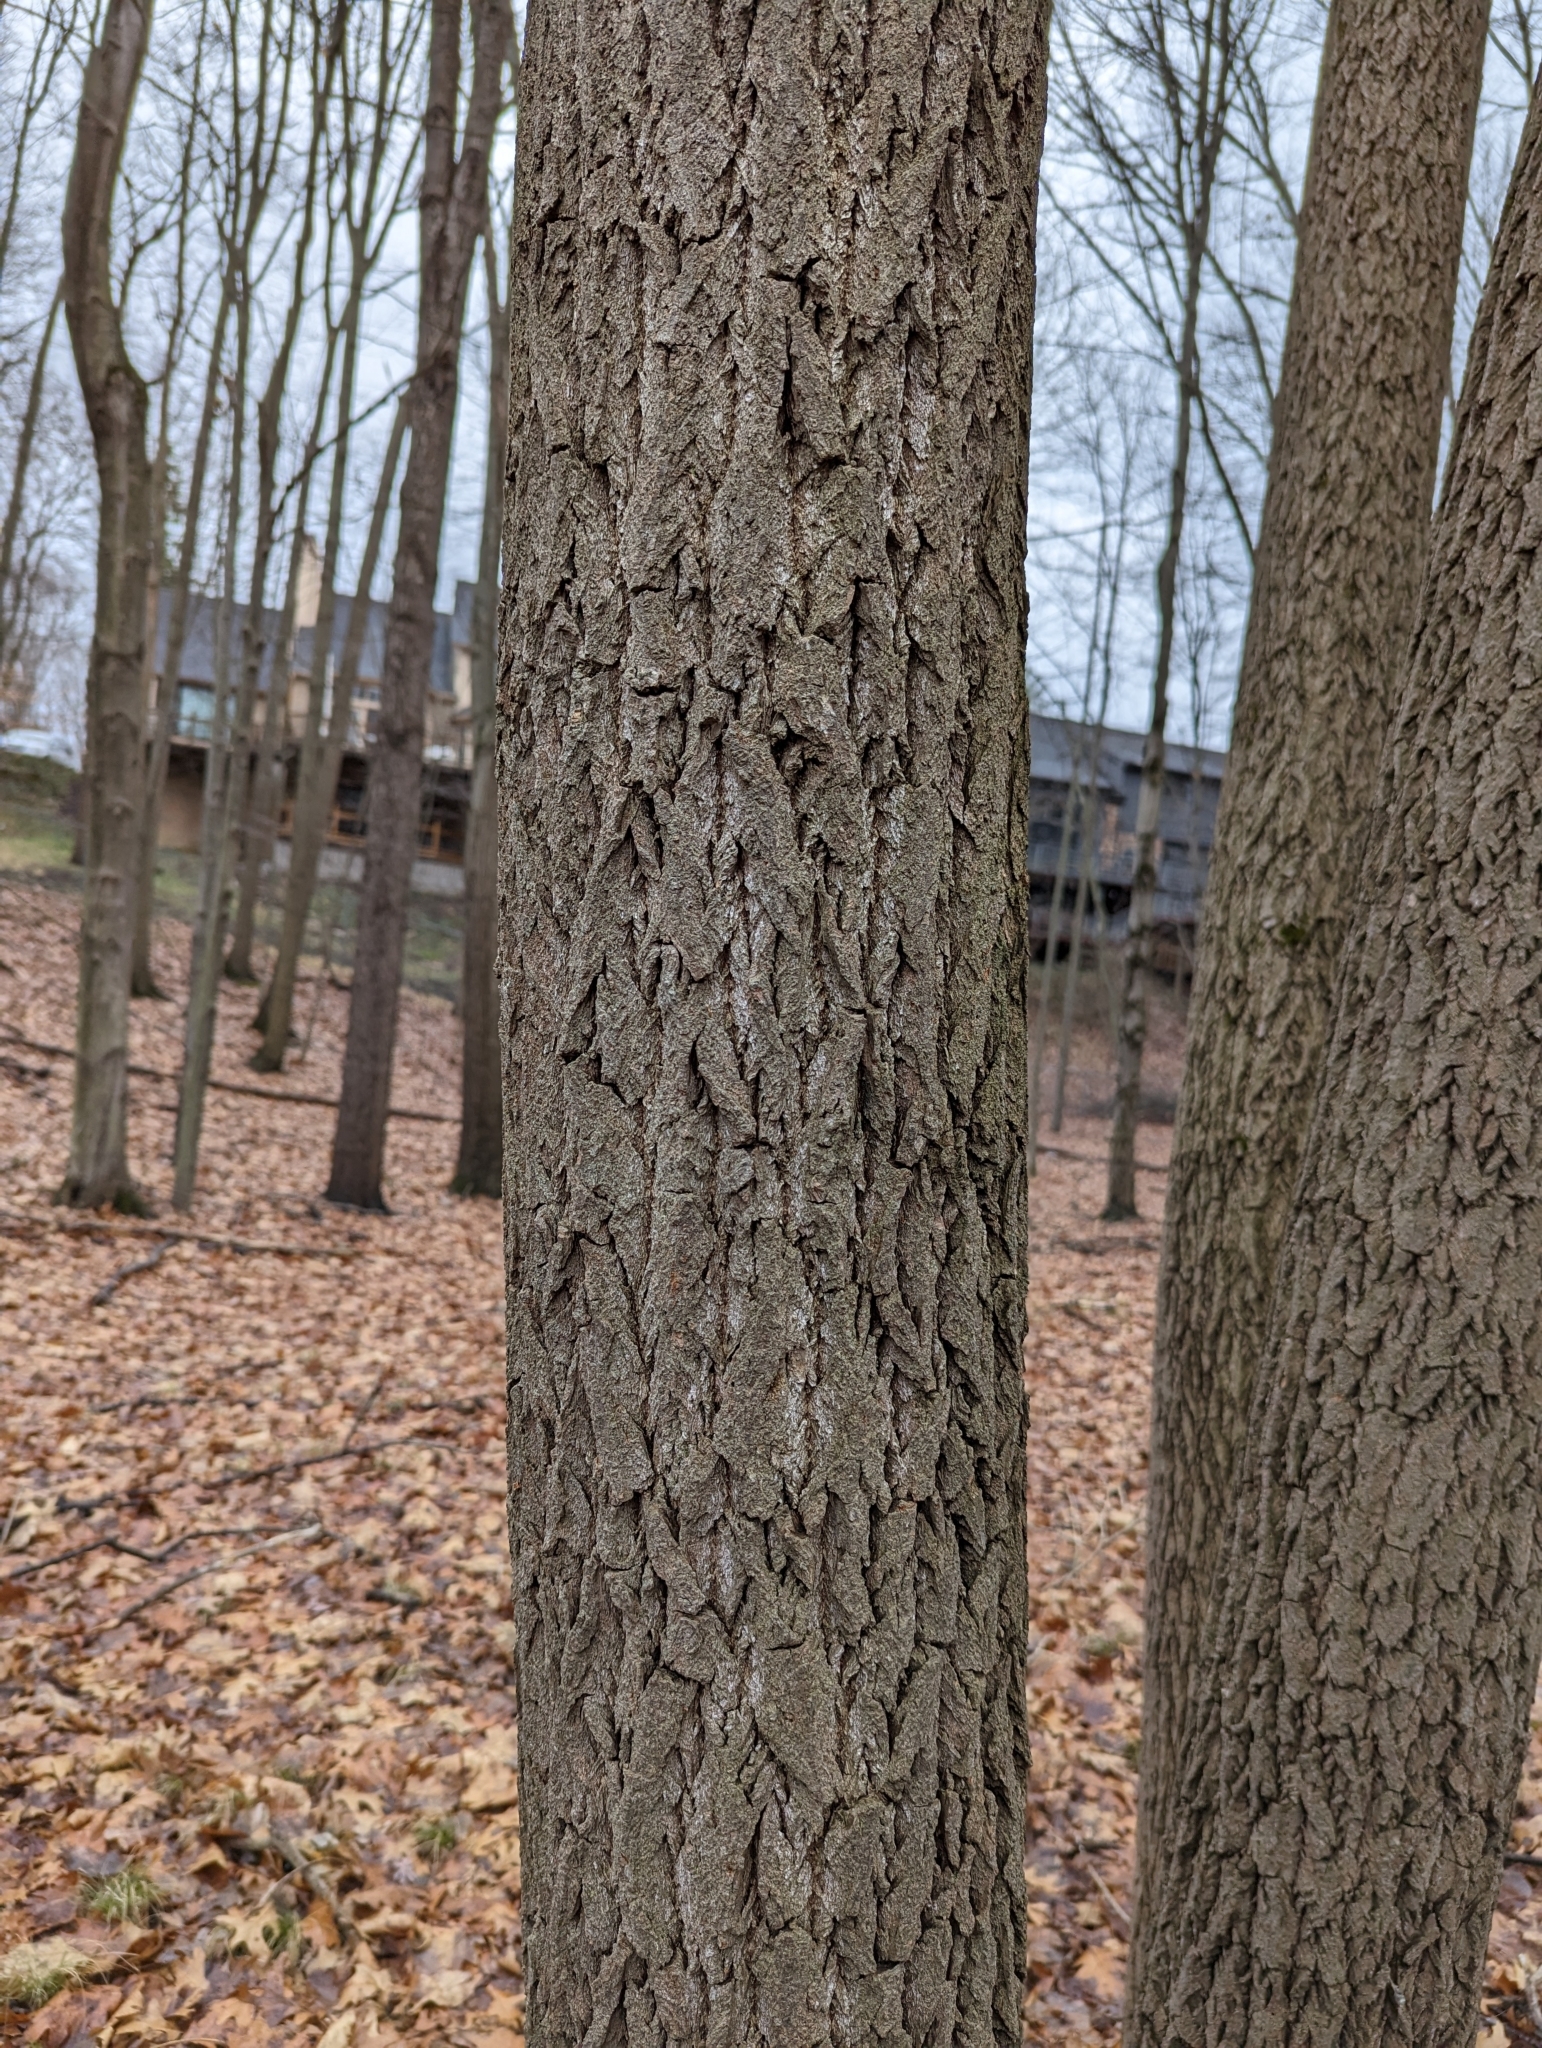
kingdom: Plantae
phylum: Tracheophyta
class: Magnoliopsida
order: Laurales
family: Lauraceae
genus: Sassafras
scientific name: Sassafras albidum
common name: Sassafras
